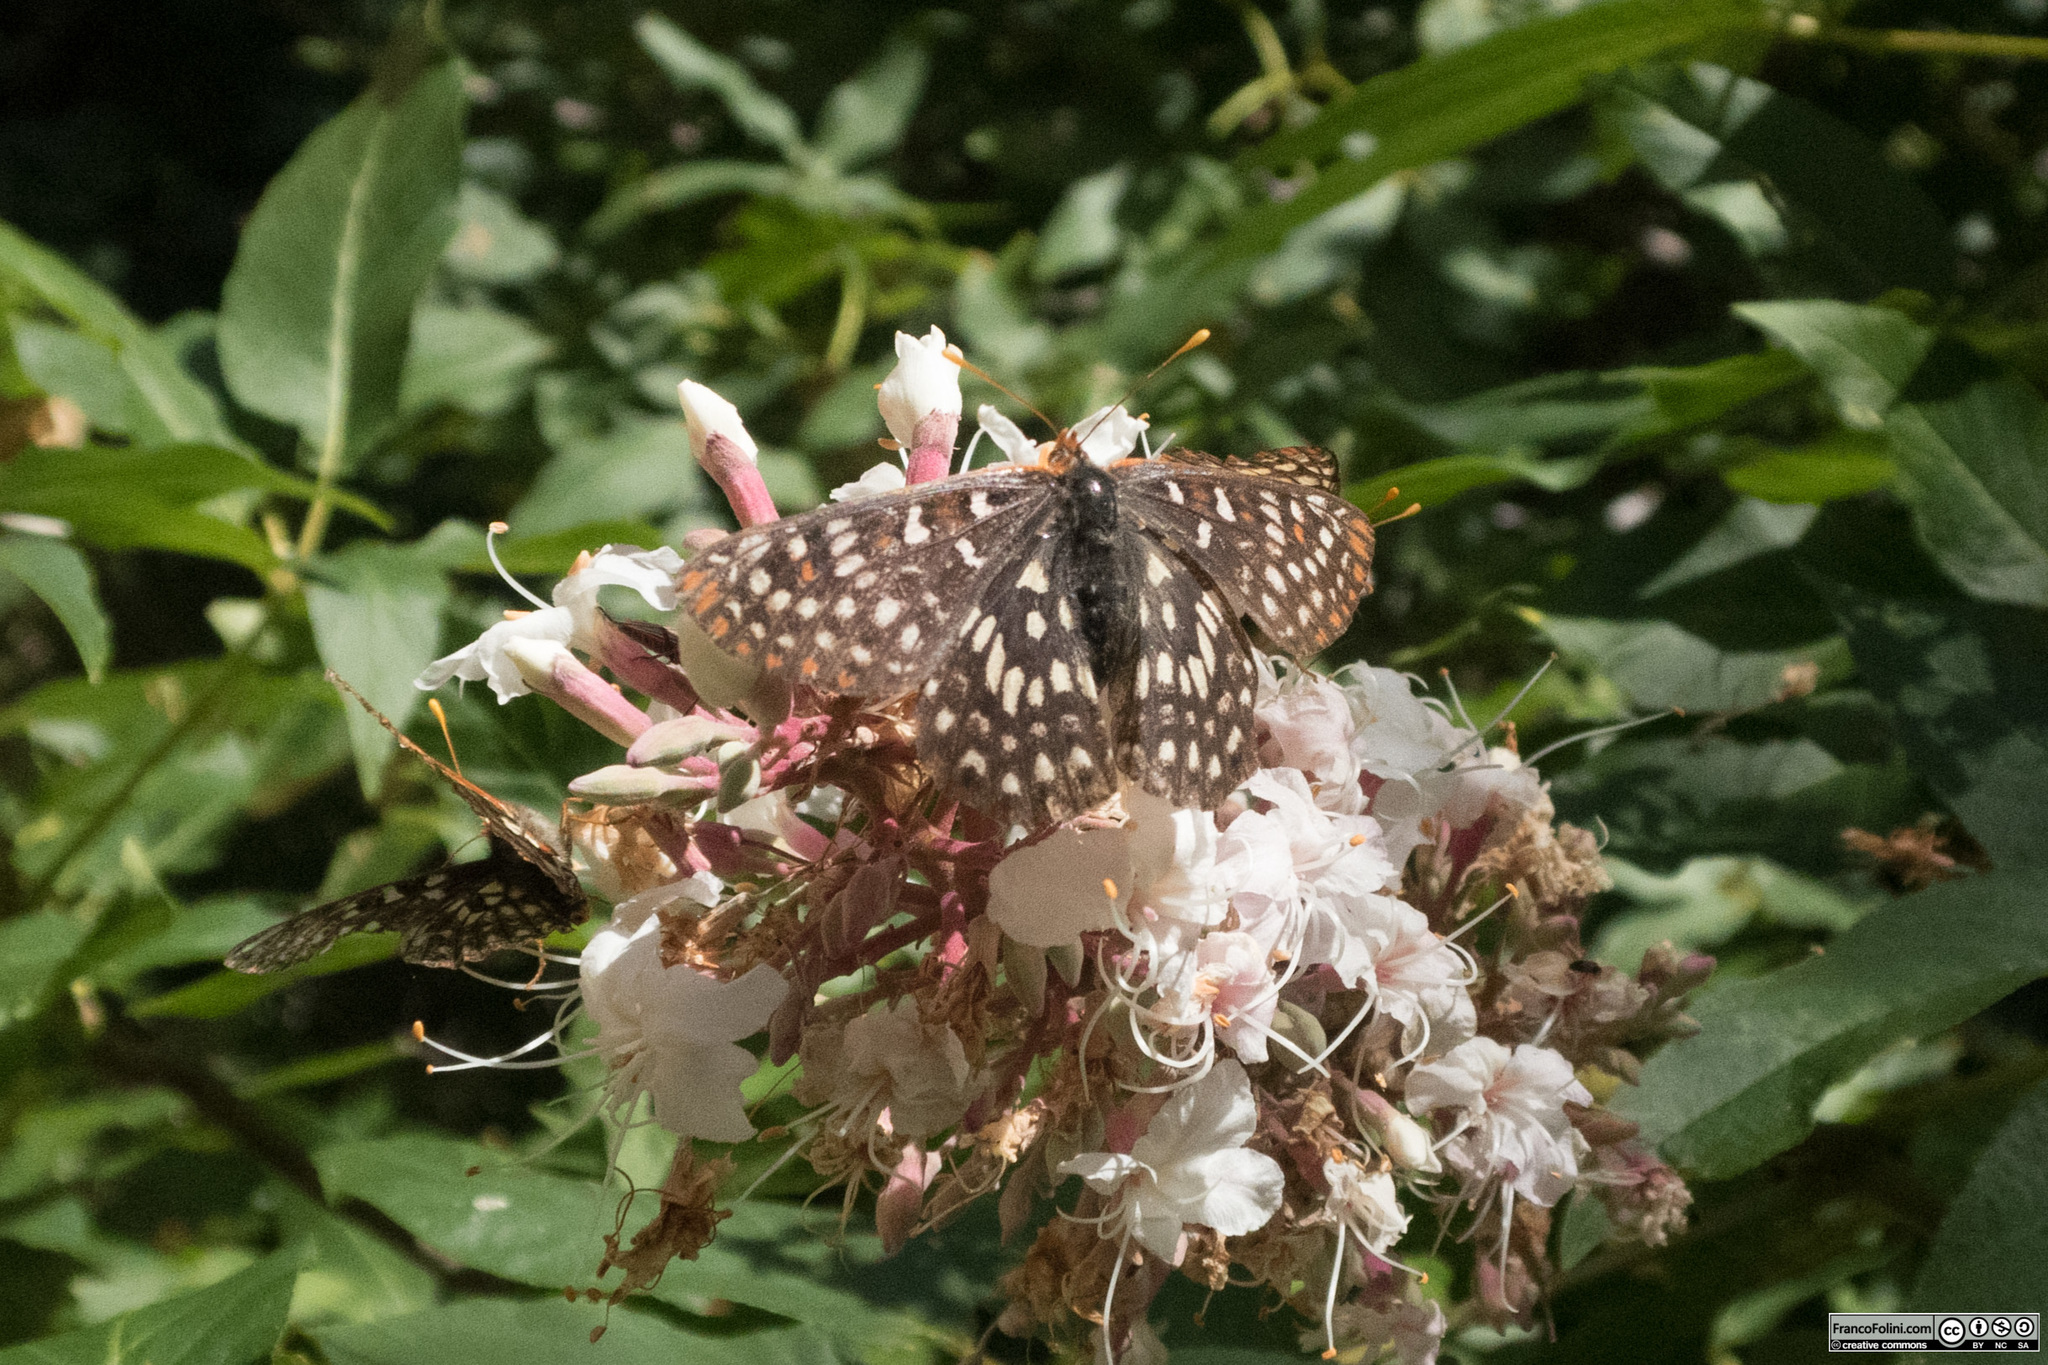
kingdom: Animalia
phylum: Arthropoda
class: Insecta
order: Lepidoptera
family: Nymphalidae
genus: Occidryas
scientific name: Occidryas chalcedona
